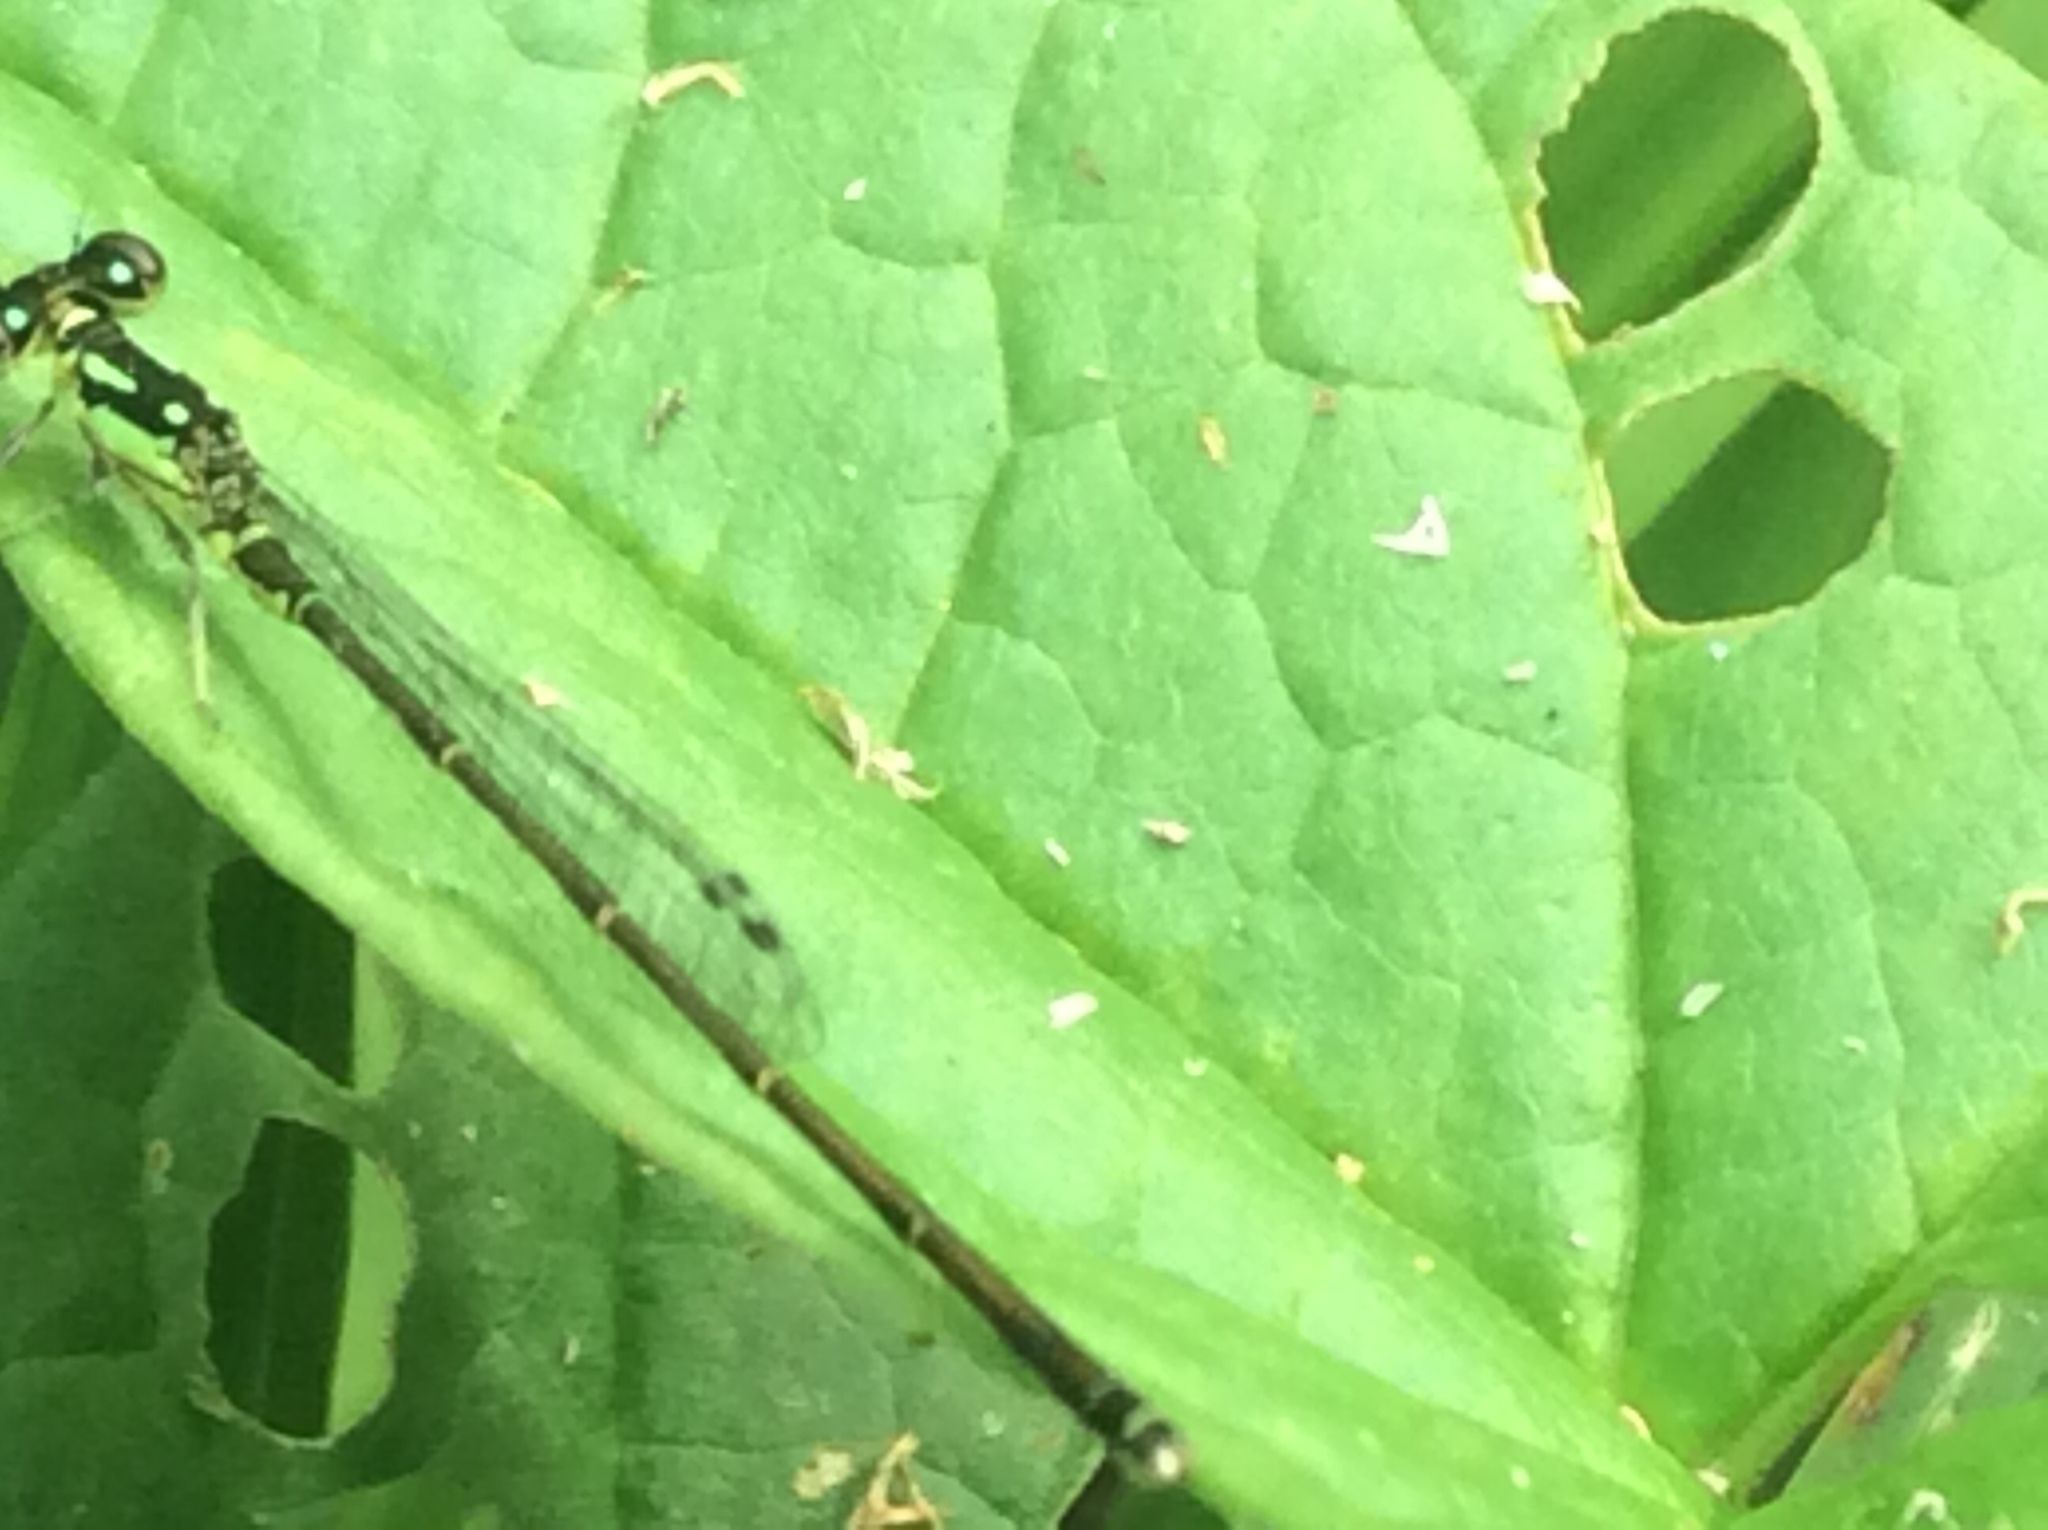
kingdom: Animalia
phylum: Arthropoda
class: Insecta
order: Odonata
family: Coenagrionidae
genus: Ischnura
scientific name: Ischnura posita
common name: Fragile forktail
